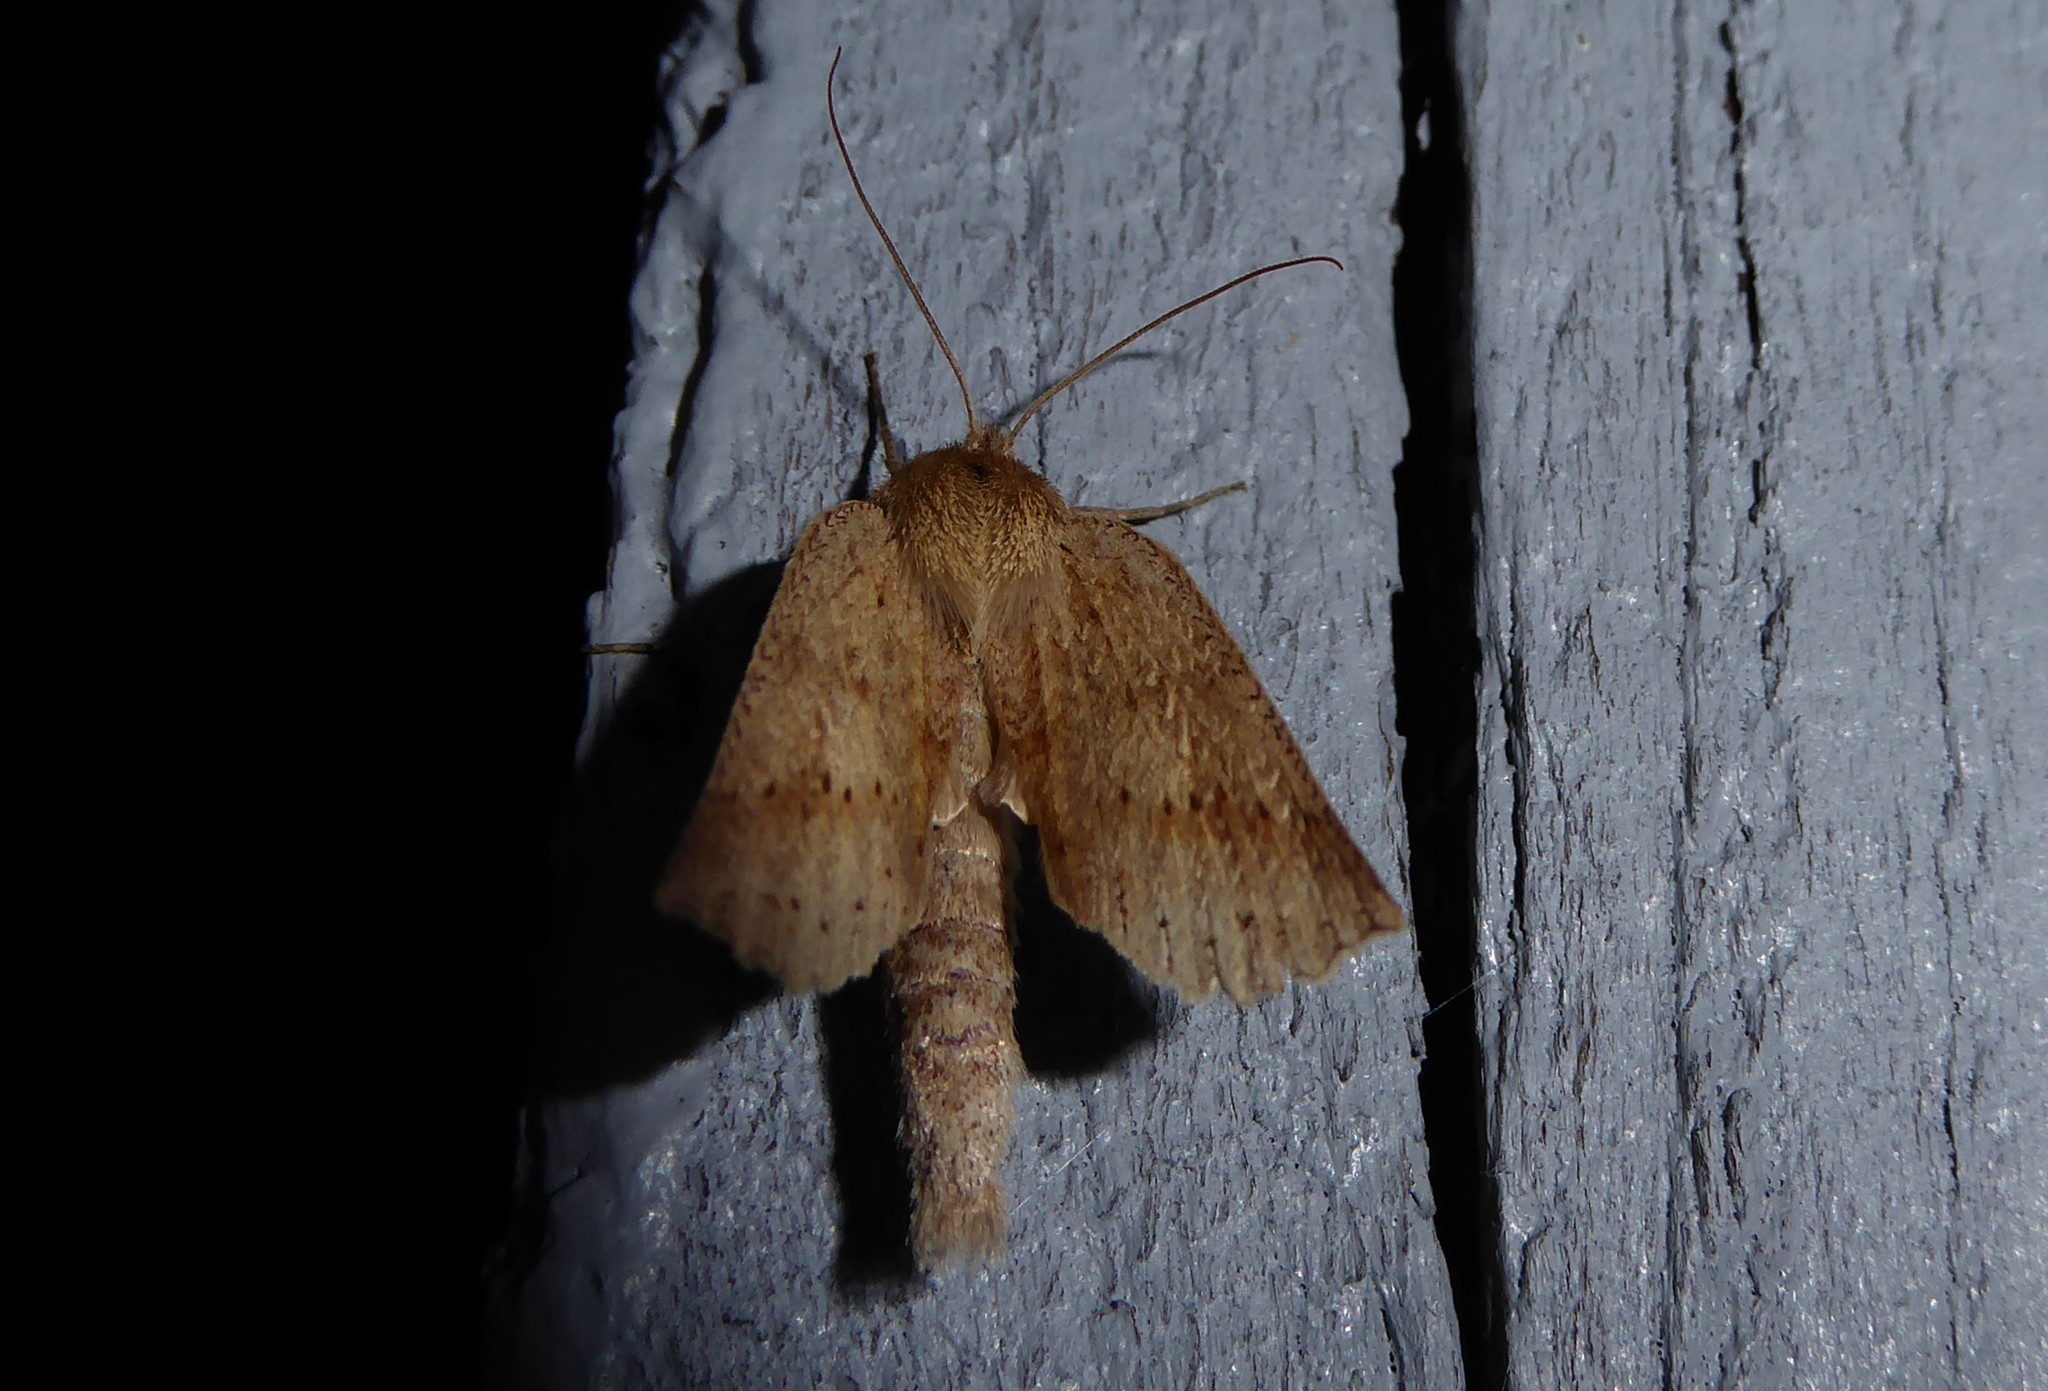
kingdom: Animalia
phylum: Arthropoda
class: Insecta
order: Lepidoptera
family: Geometridae
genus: Declana
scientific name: Declana leptomera
